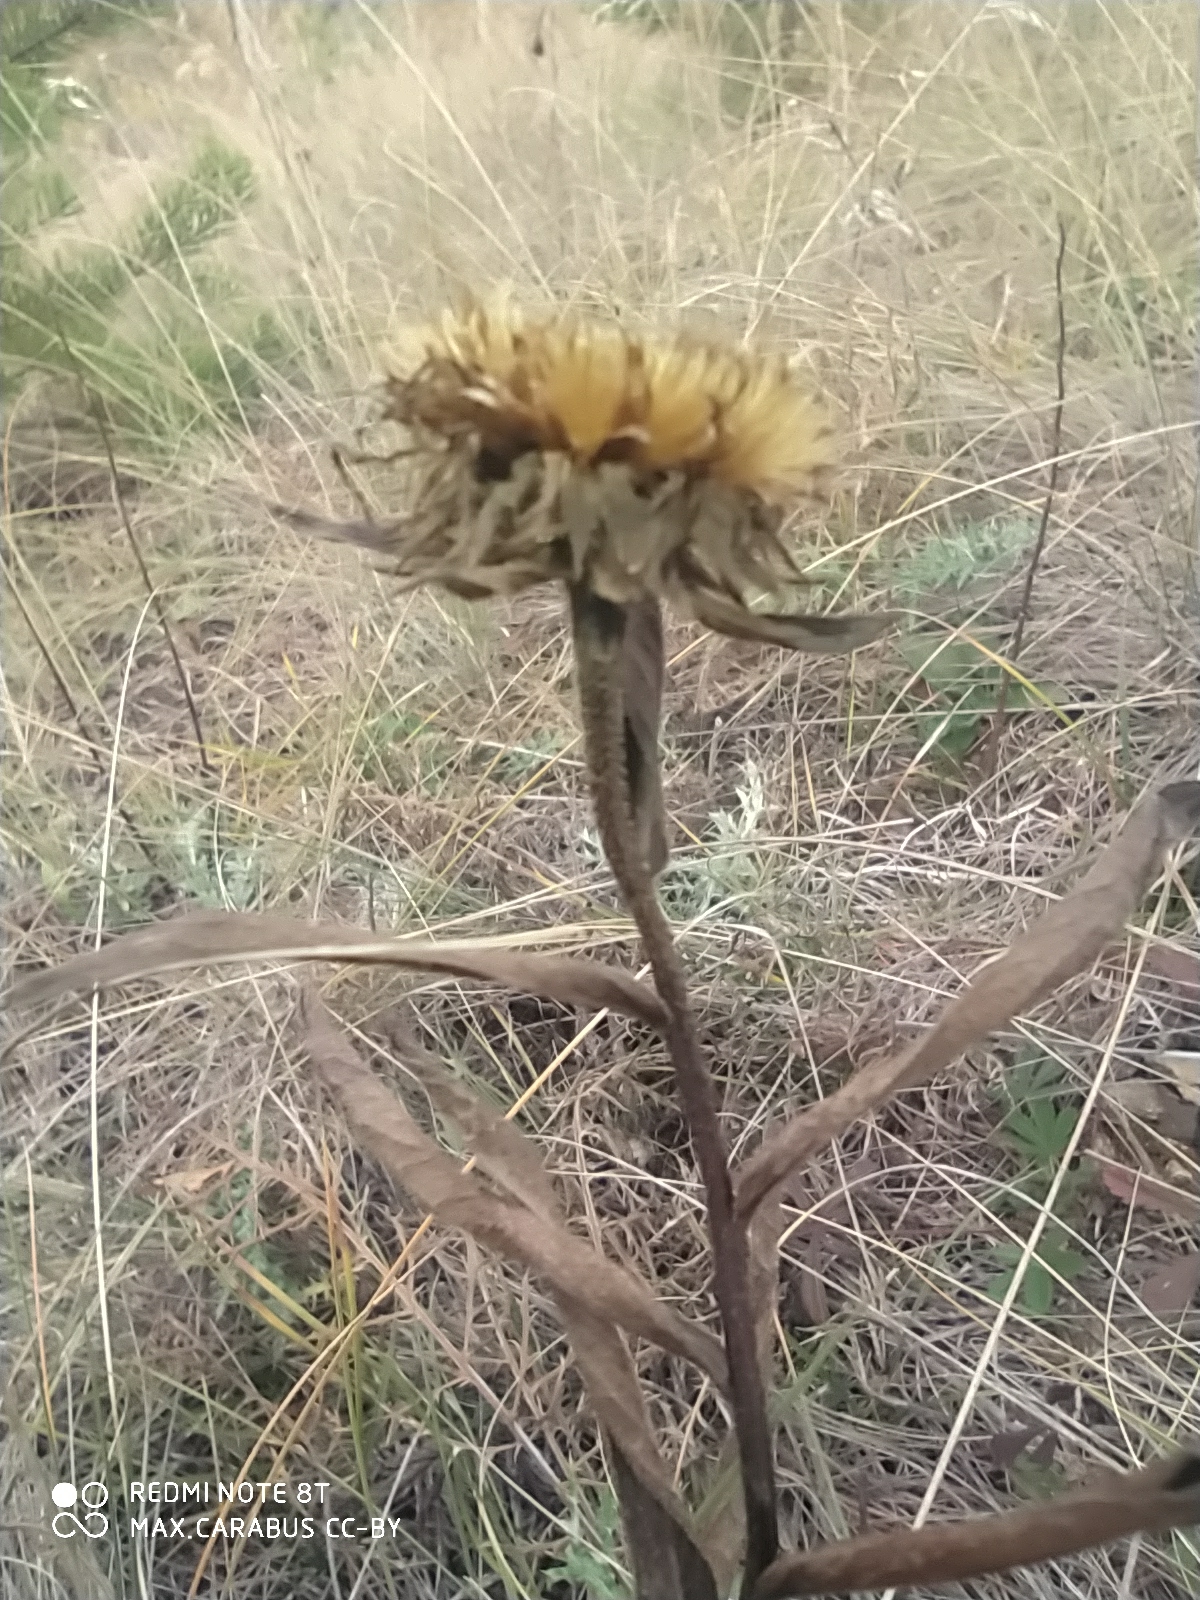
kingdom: Plantae
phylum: Tracheophyta
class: Magnoliopsida
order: Asterales
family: Asteraceae
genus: Pentanema
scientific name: Pentanema hirtum
